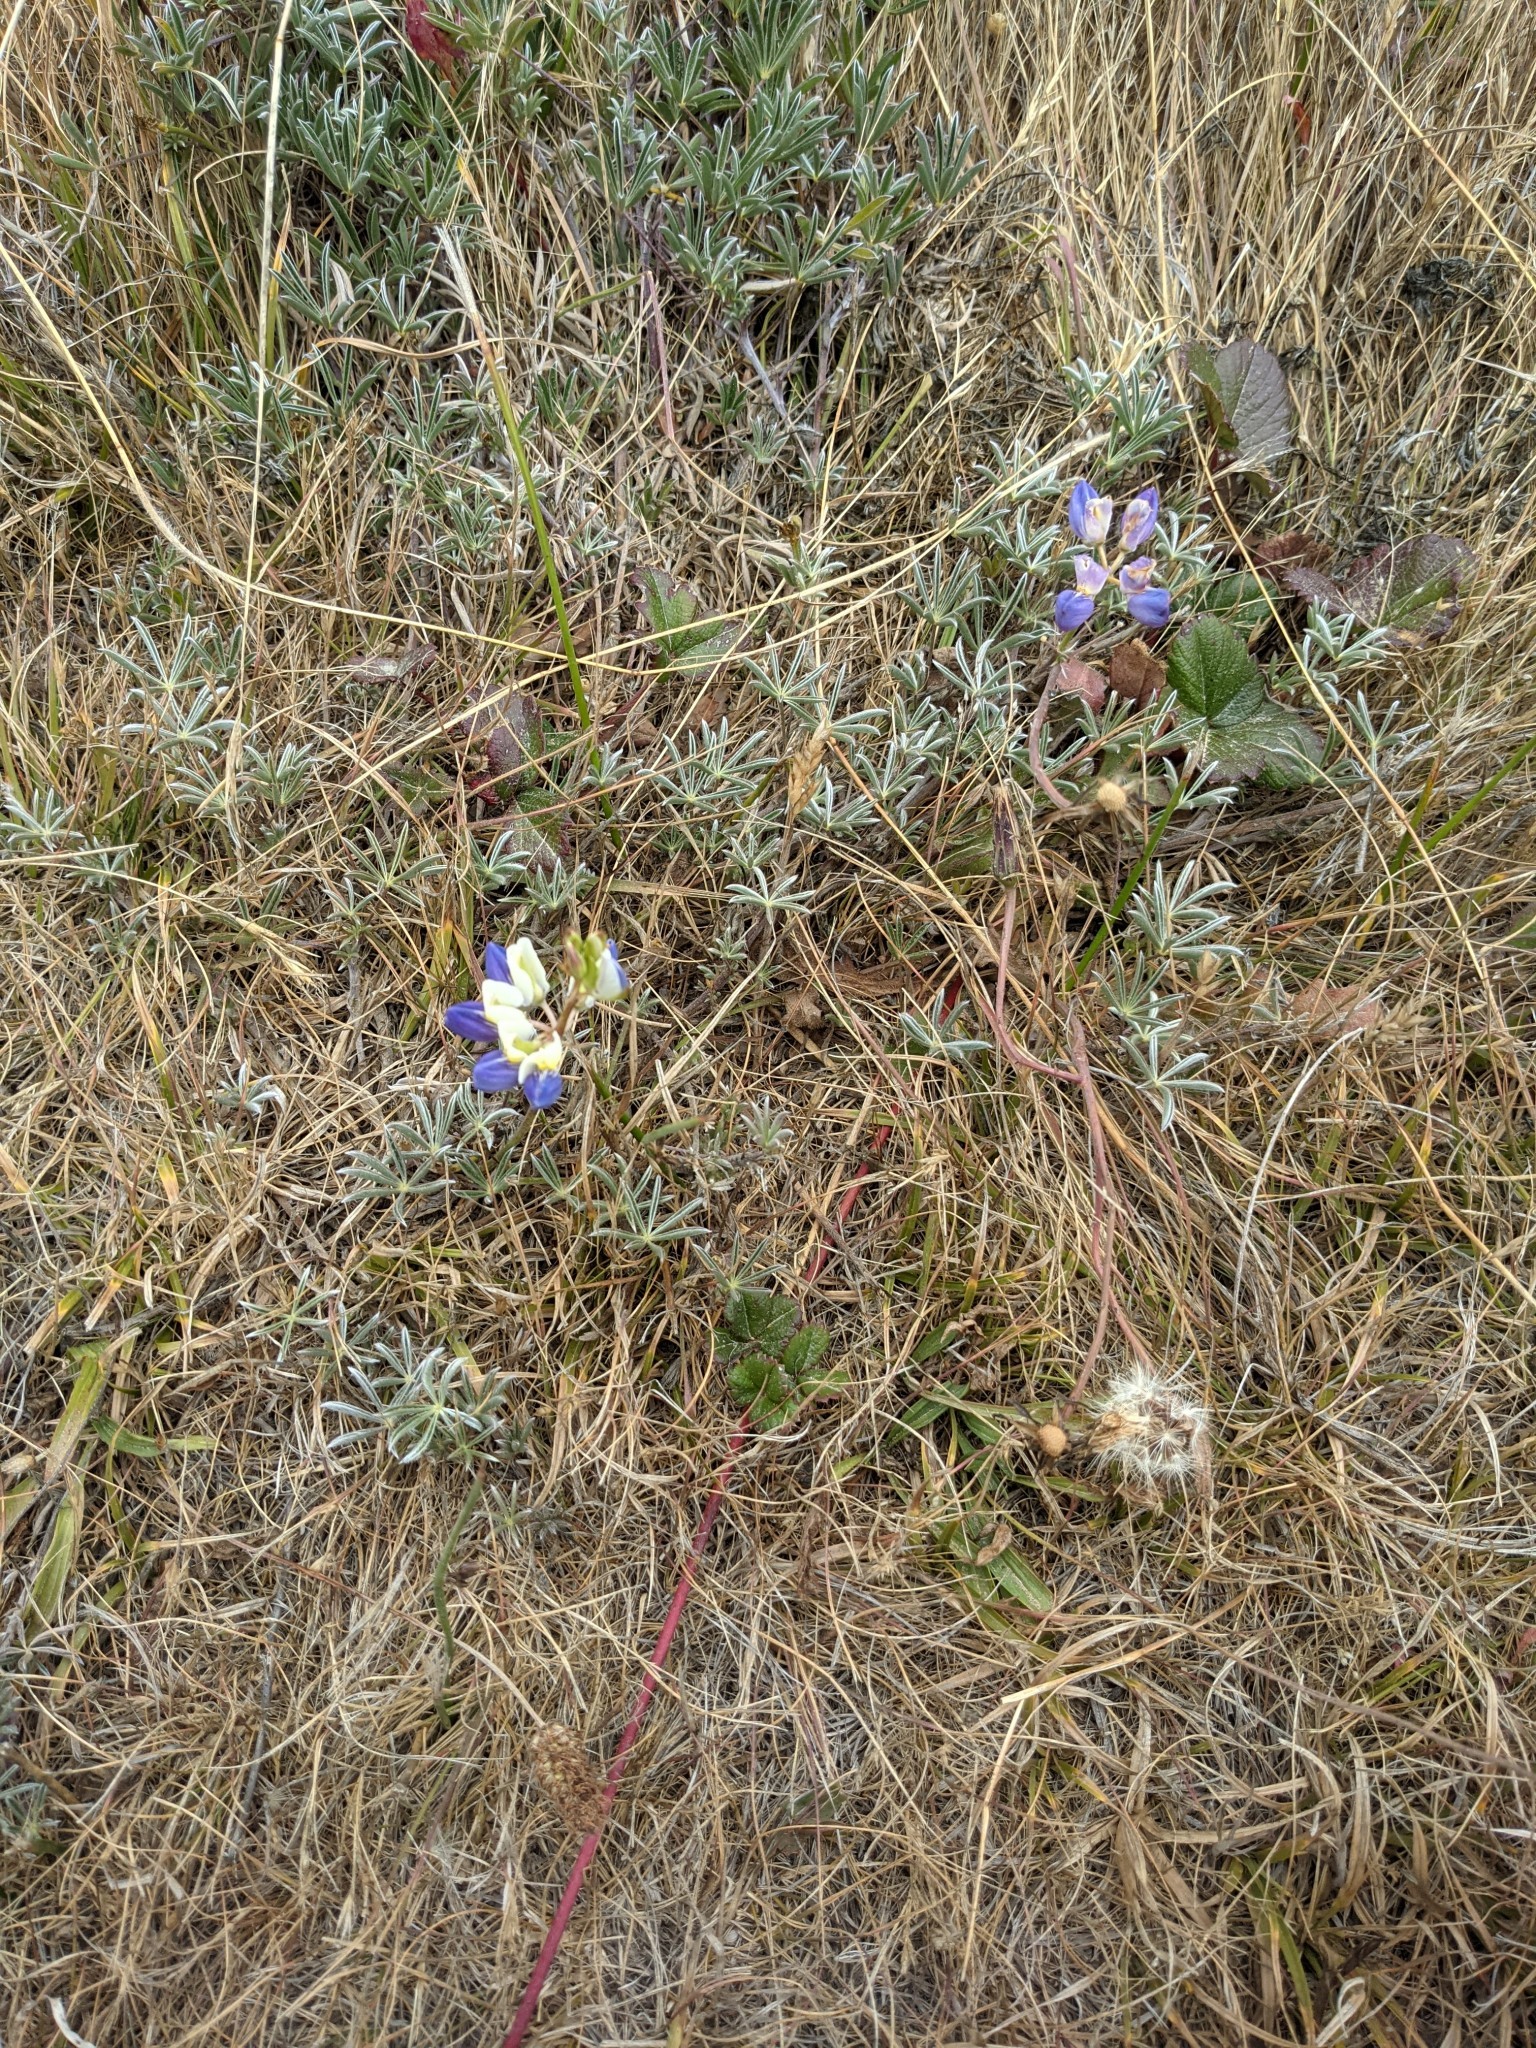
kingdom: Plantae
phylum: Tracheophyta
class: Magnoliopsida
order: Fabales
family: Fabaceae
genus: Lupinus
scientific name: Lupinus variicolor
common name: Lindley's varied lupine
